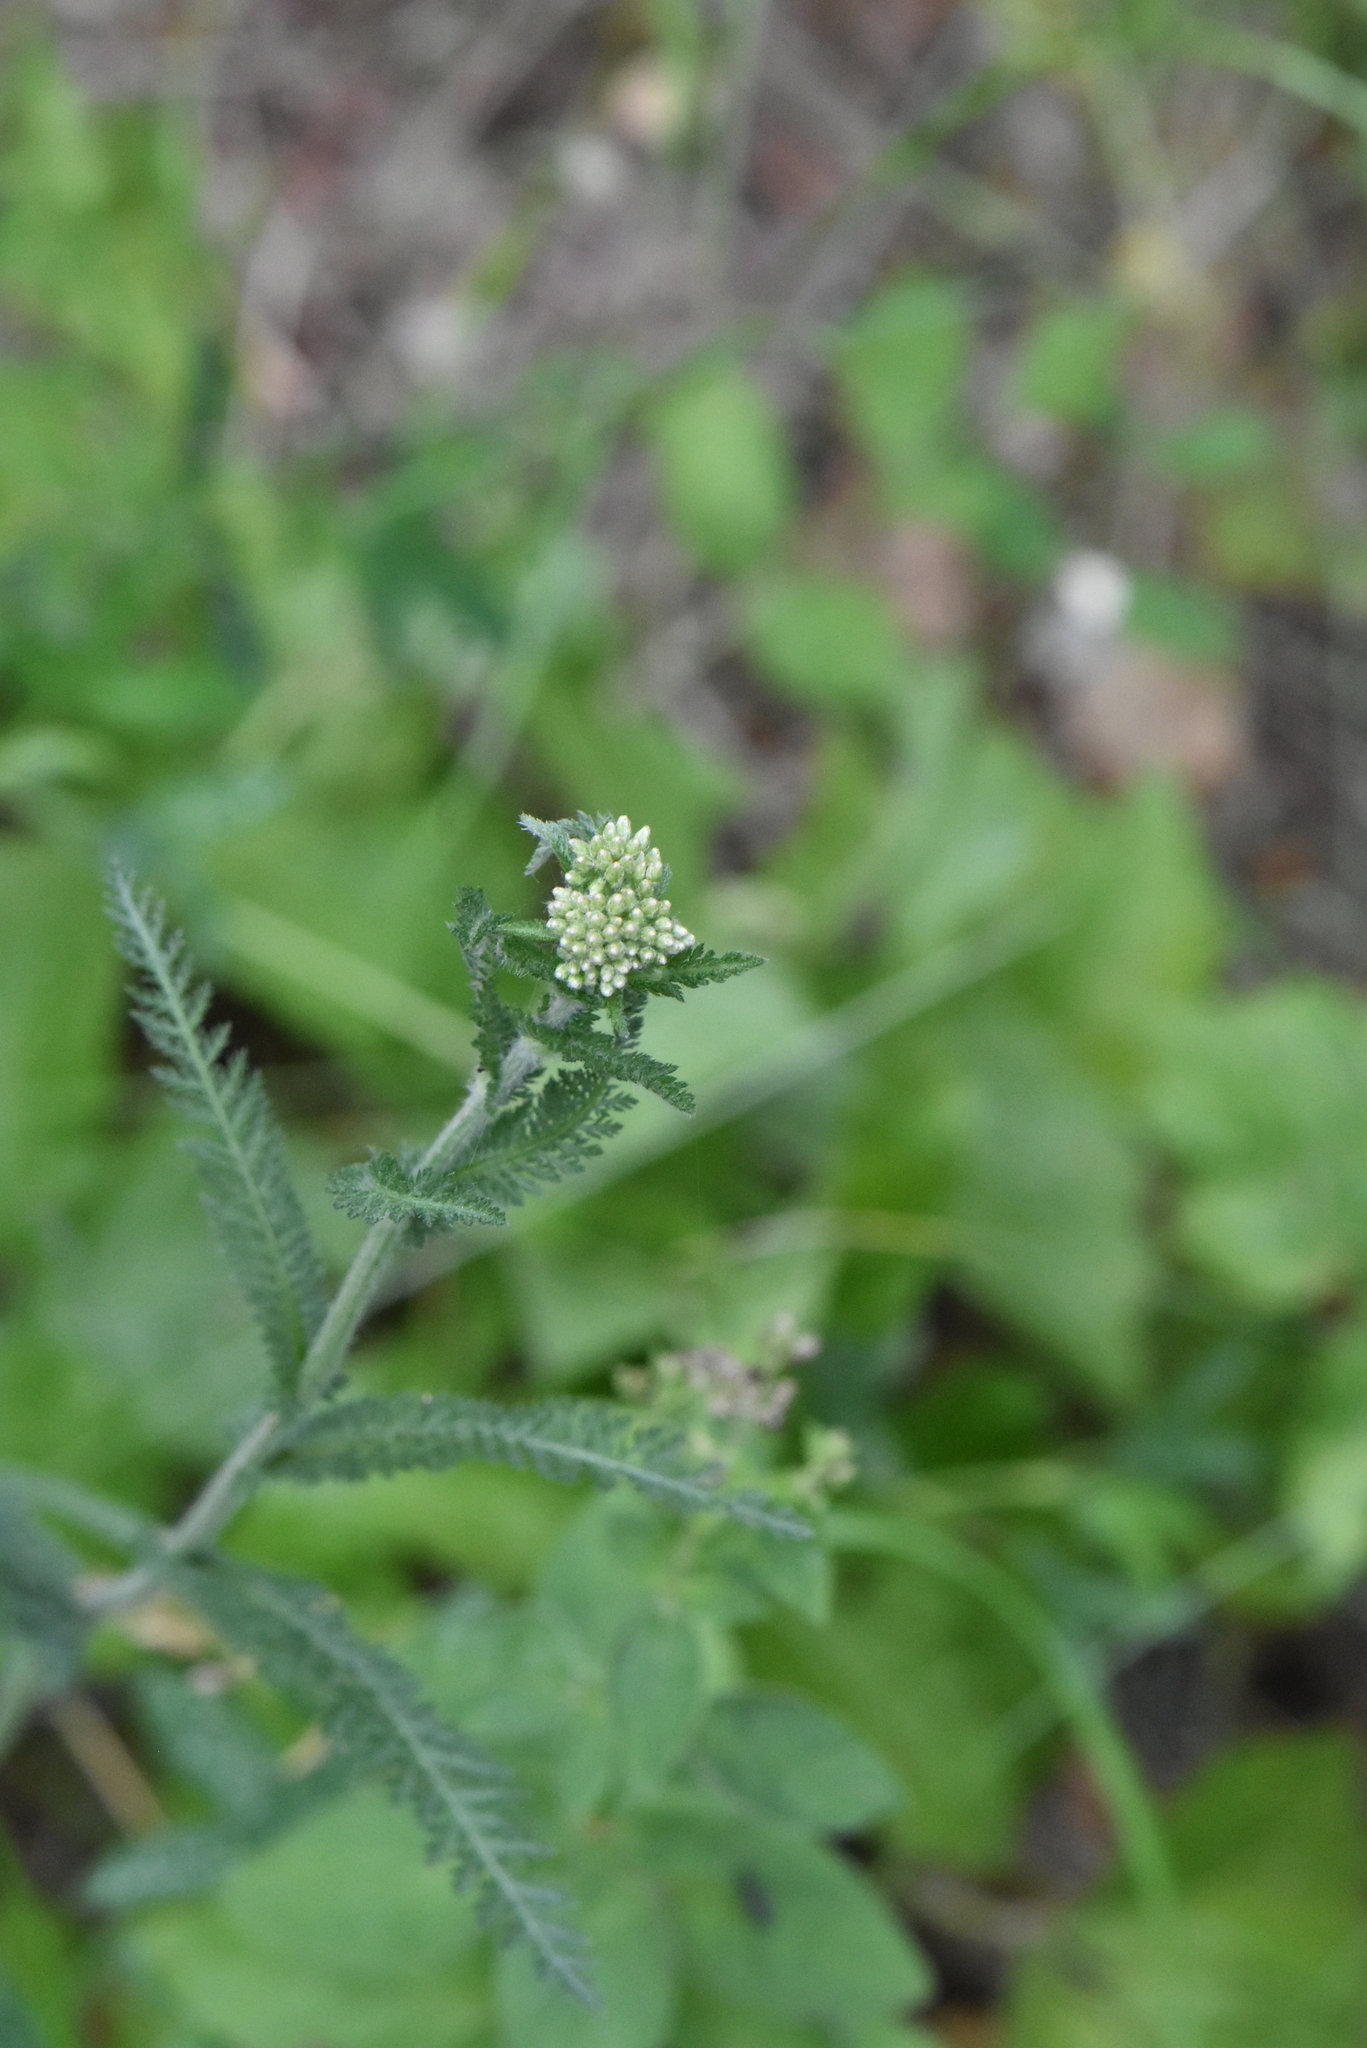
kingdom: Plantae
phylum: Tracheophyta
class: Magnoliopsida
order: Asterales
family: Asteraceae
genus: Achillea
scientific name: Achillea millefolium
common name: Yarrow
